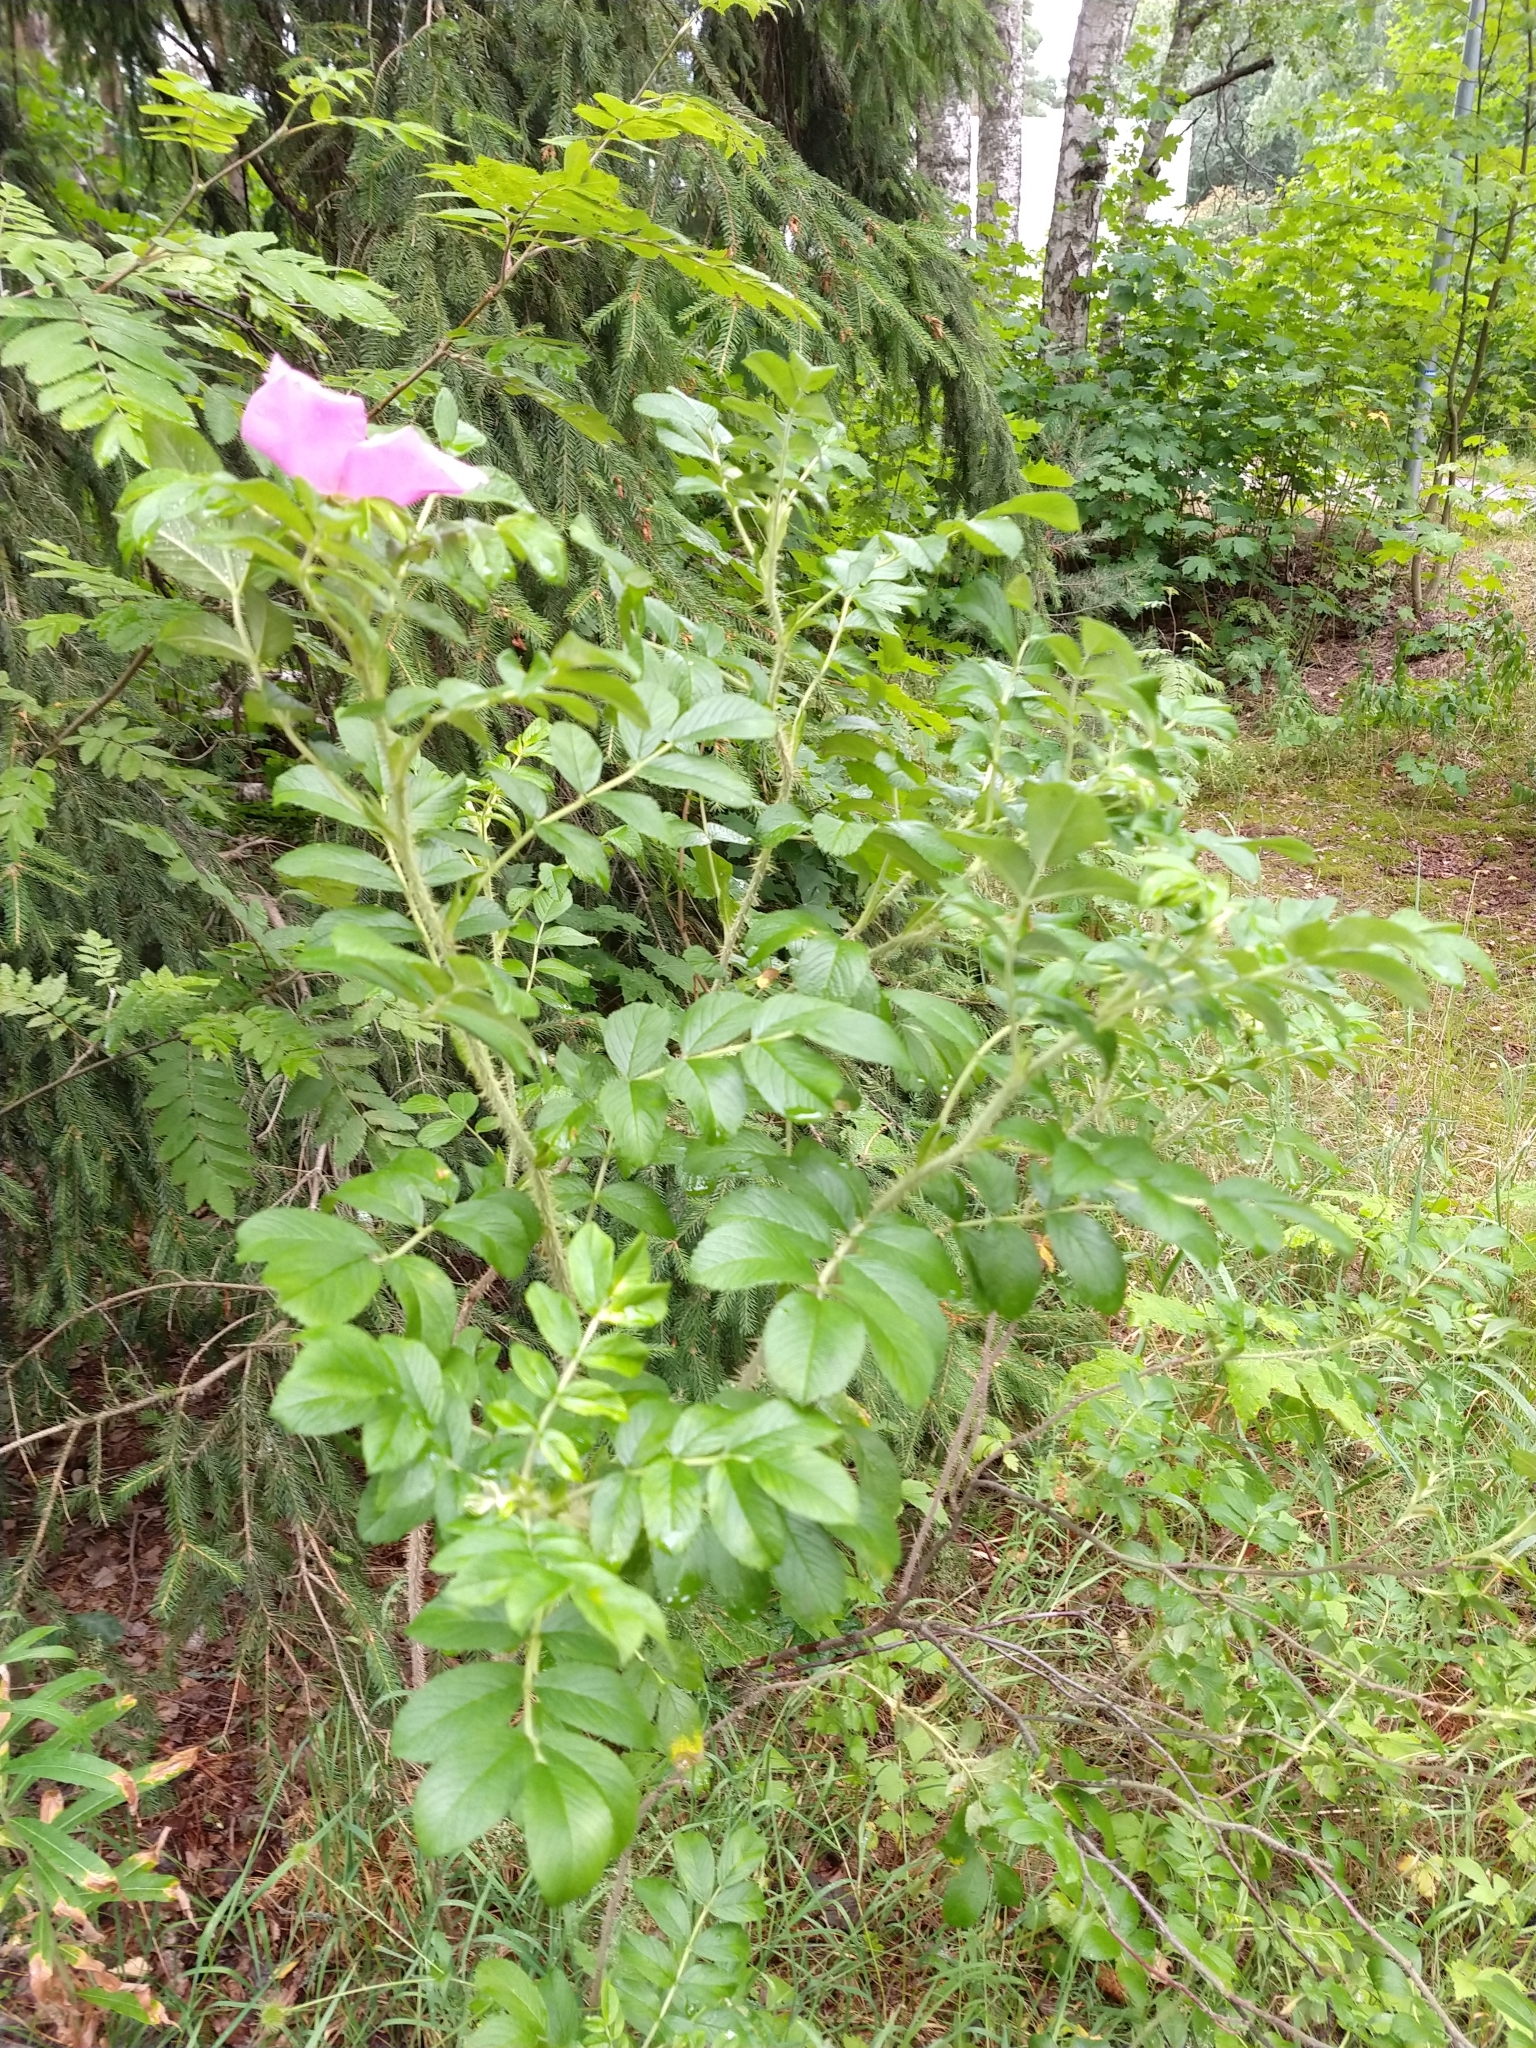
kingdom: Plantae
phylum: Tracheophyta
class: Magnoliopsida
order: Rosales
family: Rosaceae
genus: Rosa
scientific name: Rosa rugosa
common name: Japanese rose
